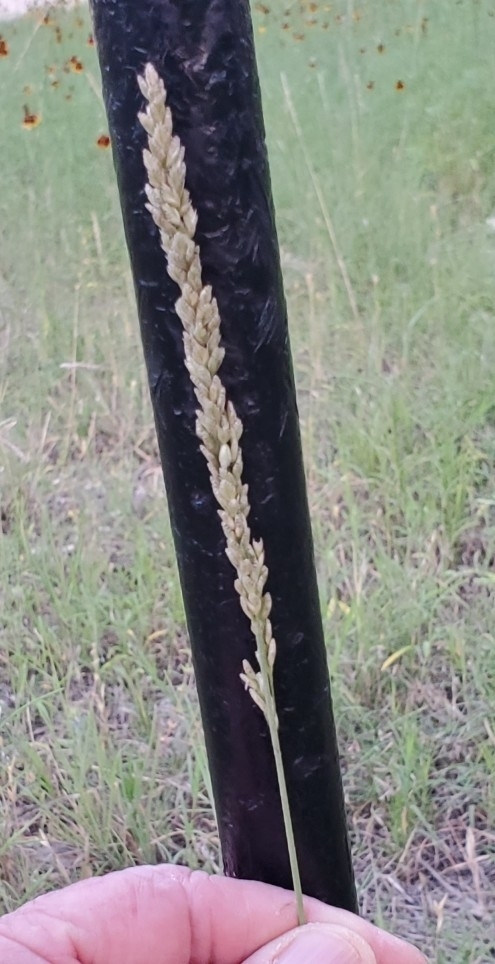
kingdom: Plantae
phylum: Tracheophyta
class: Liliopsida
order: Poales
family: Poaceae
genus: Tridens
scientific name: Tridens albescens
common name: White tridens
